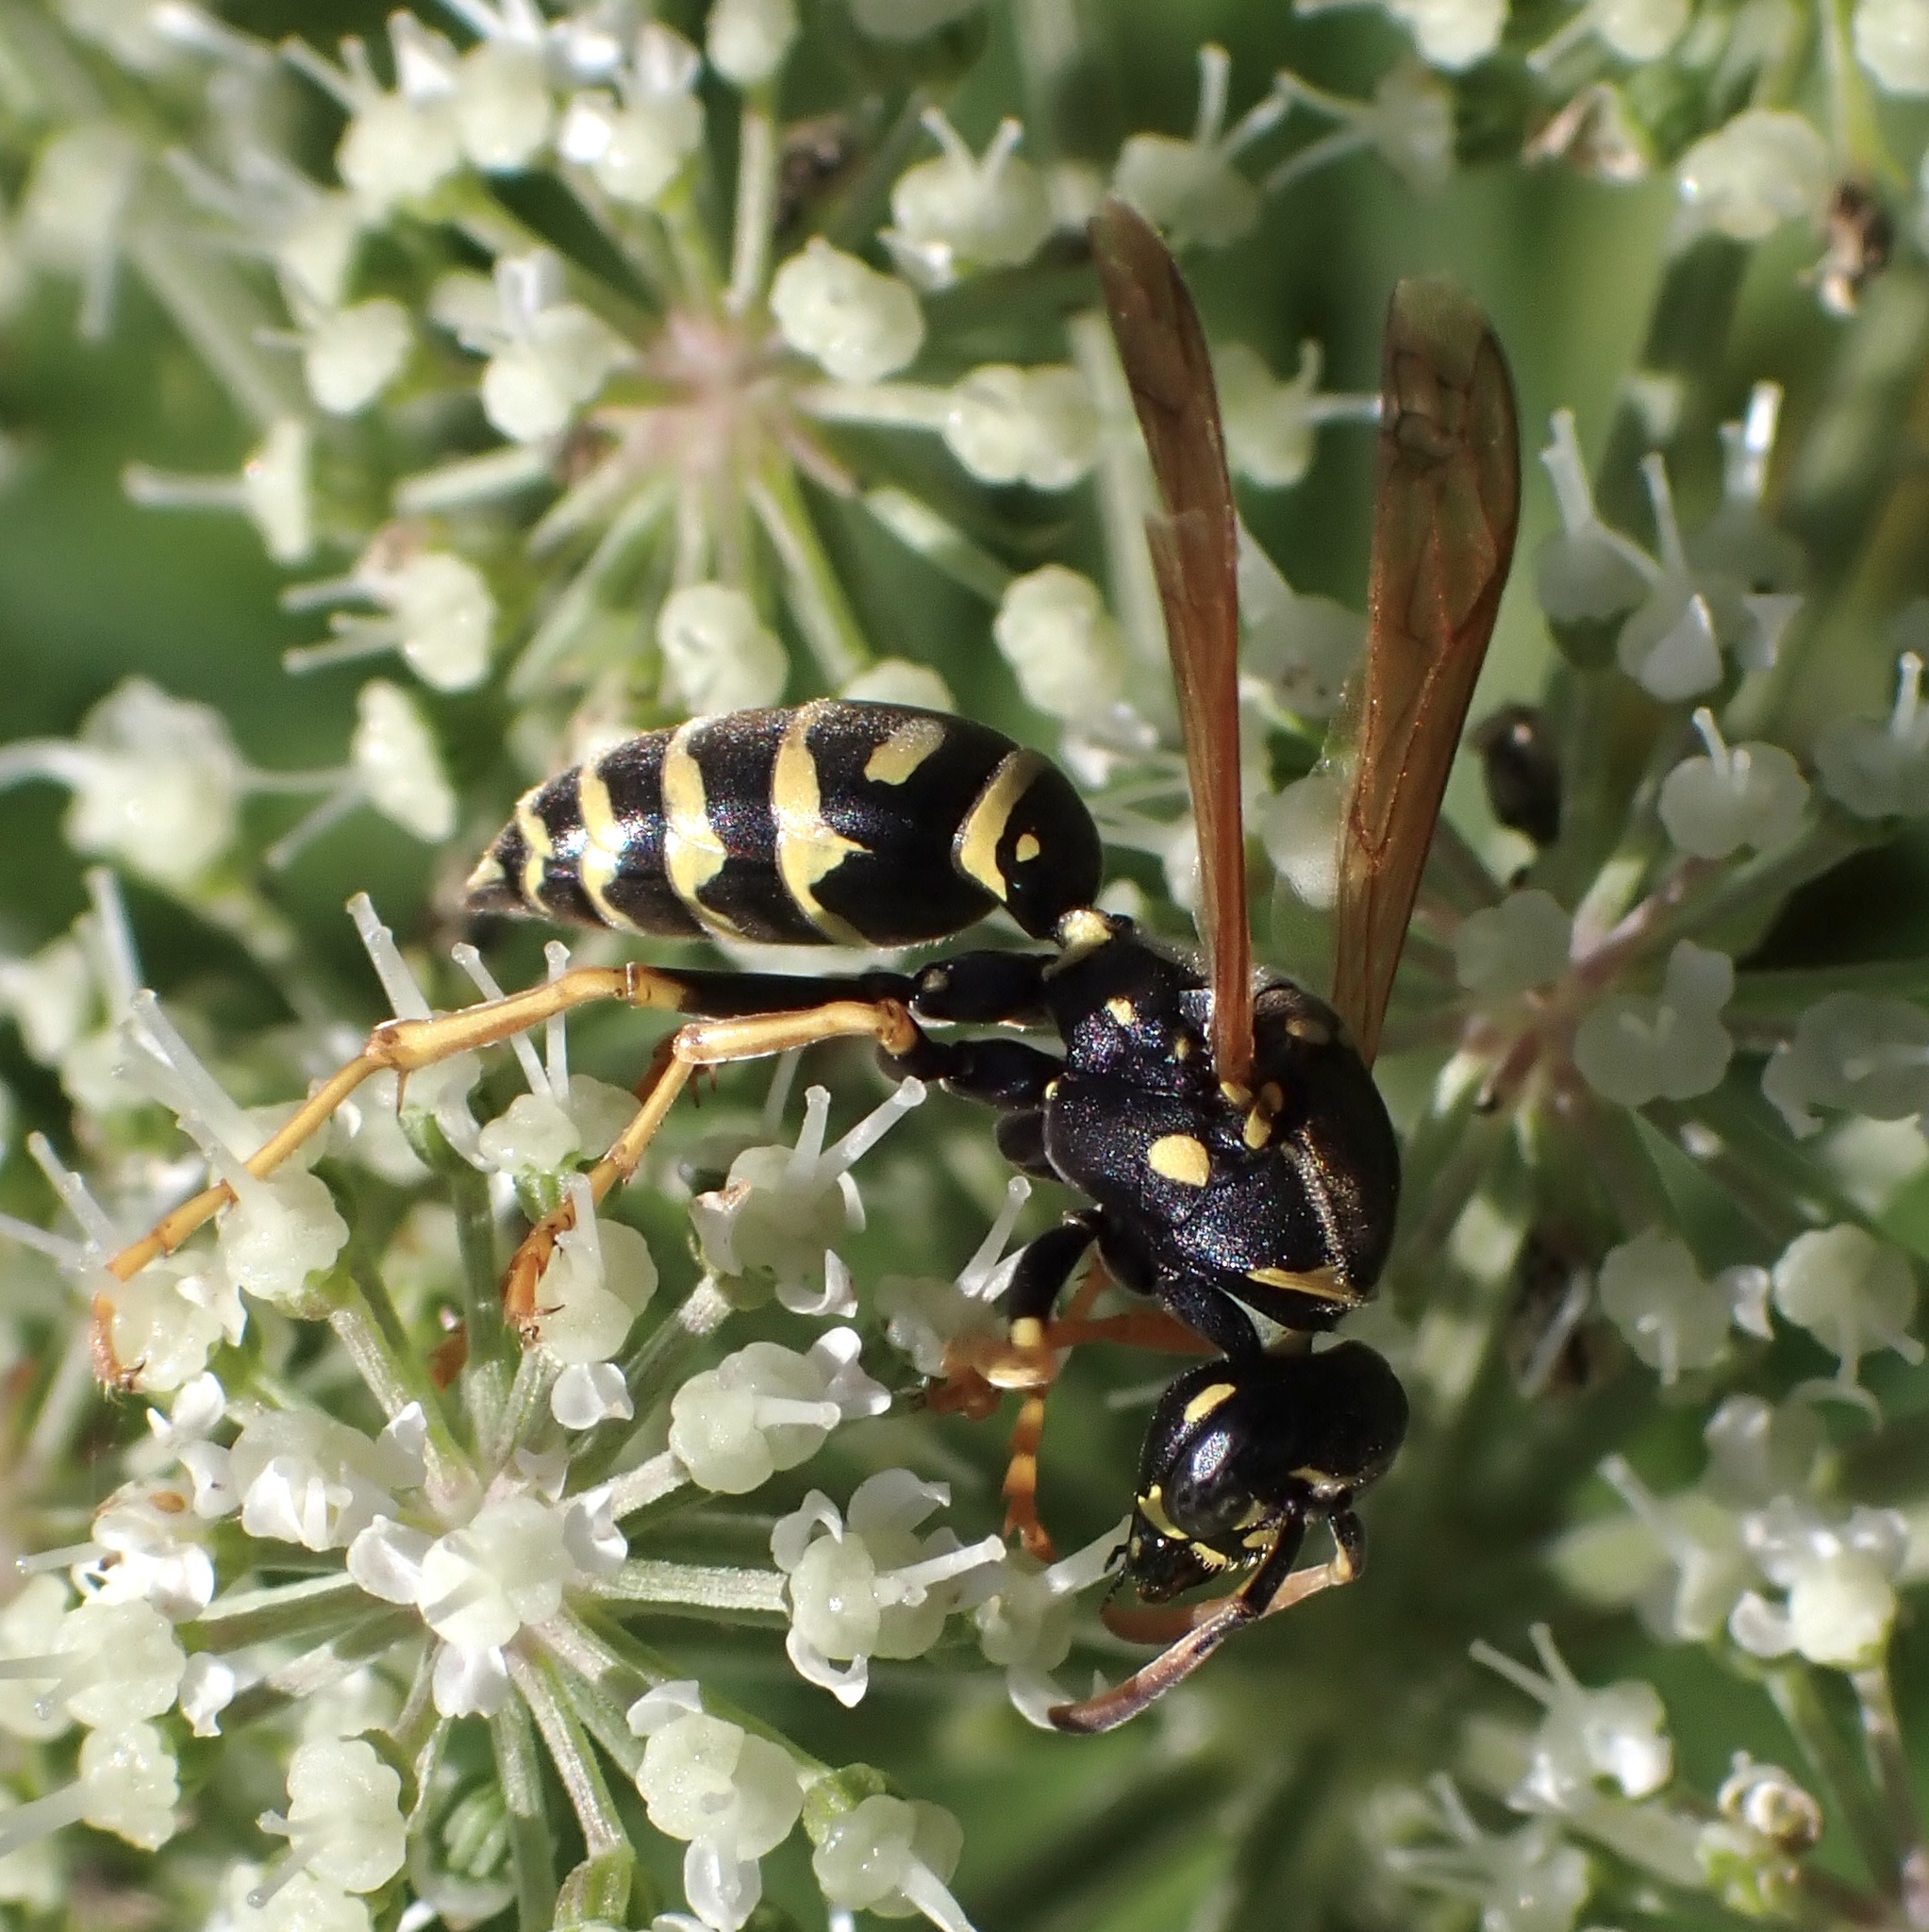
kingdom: Animalia
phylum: Arthropoda
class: Insecta
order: Hymenoptera
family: Eumenidae
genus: Polistes
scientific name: Polistes nimpha
